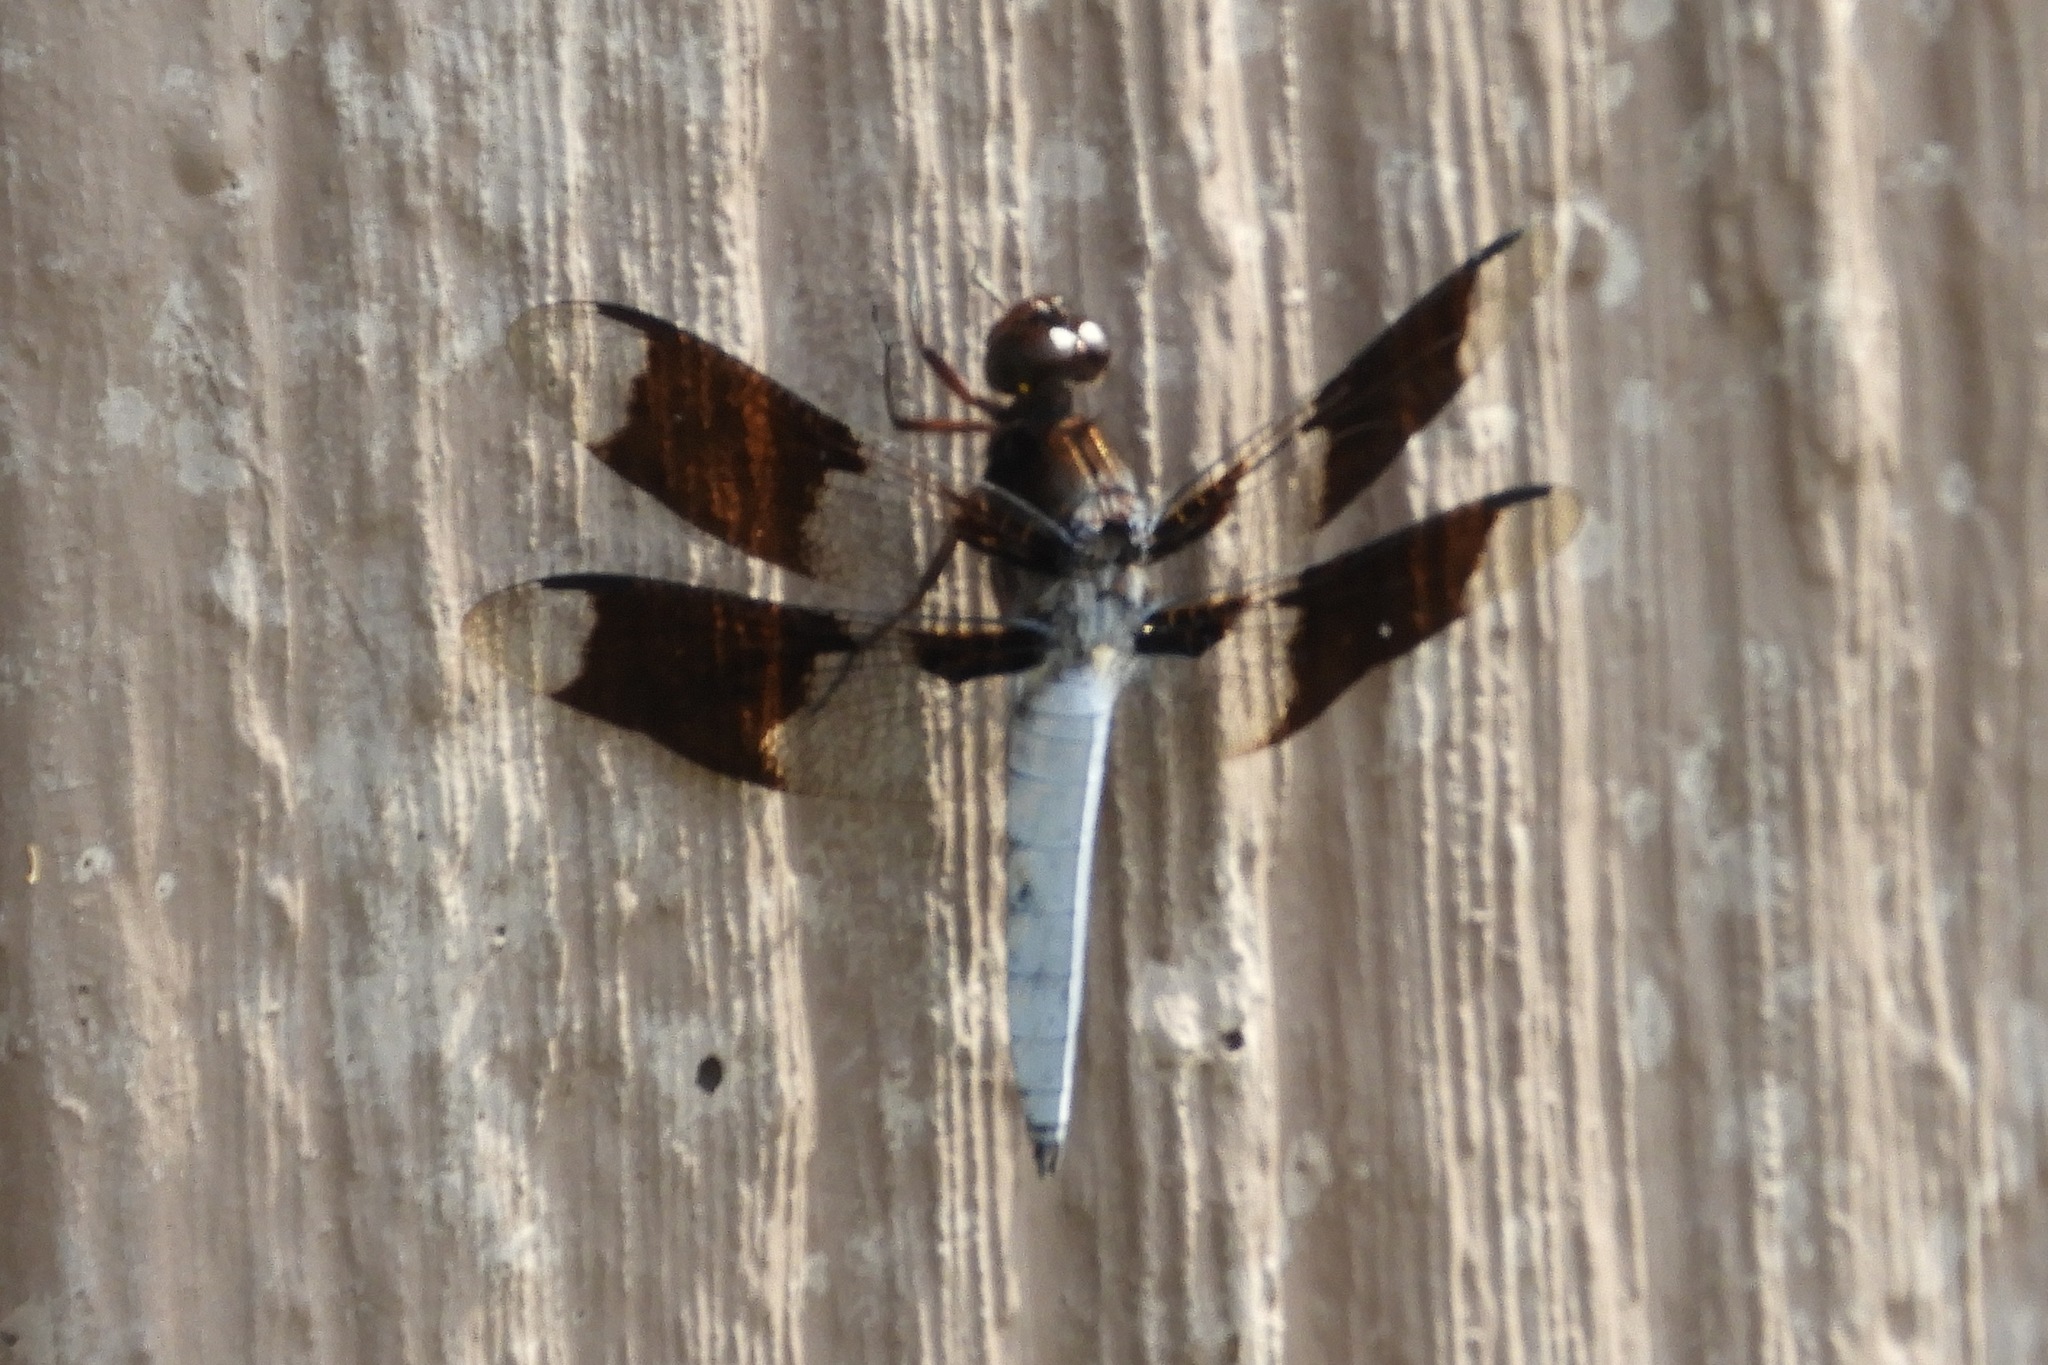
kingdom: Animalia
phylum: Arthropoda
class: Insecta
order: Odonata
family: Libellulidae
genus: Plathemis
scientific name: Plathemis lydia
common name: Common whitetail
